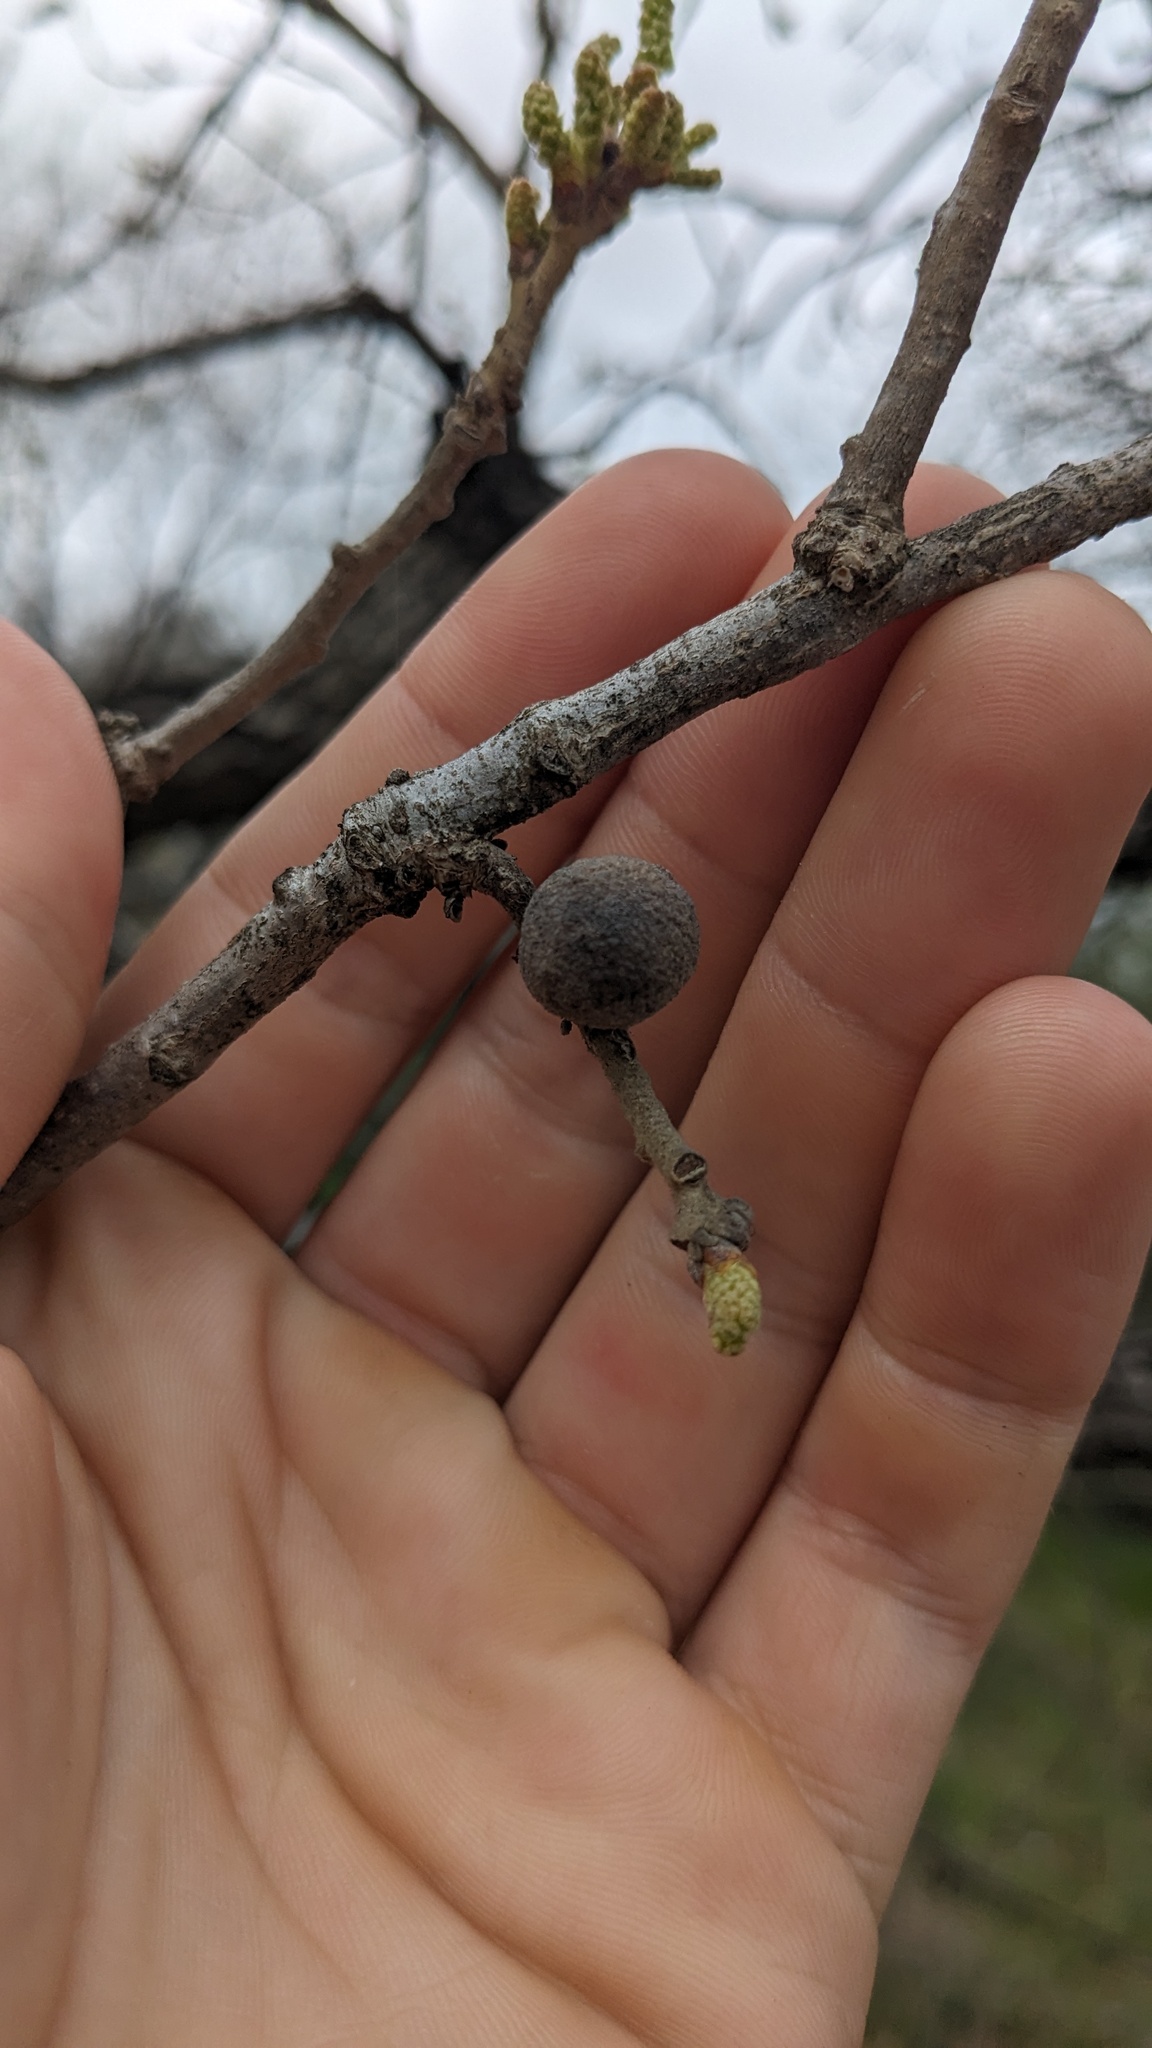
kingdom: Animalia
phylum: Arthropoda
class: Insecta
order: Hymenoptera
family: Cynipidae
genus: Disholcaspis
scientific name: Disholcaspis
